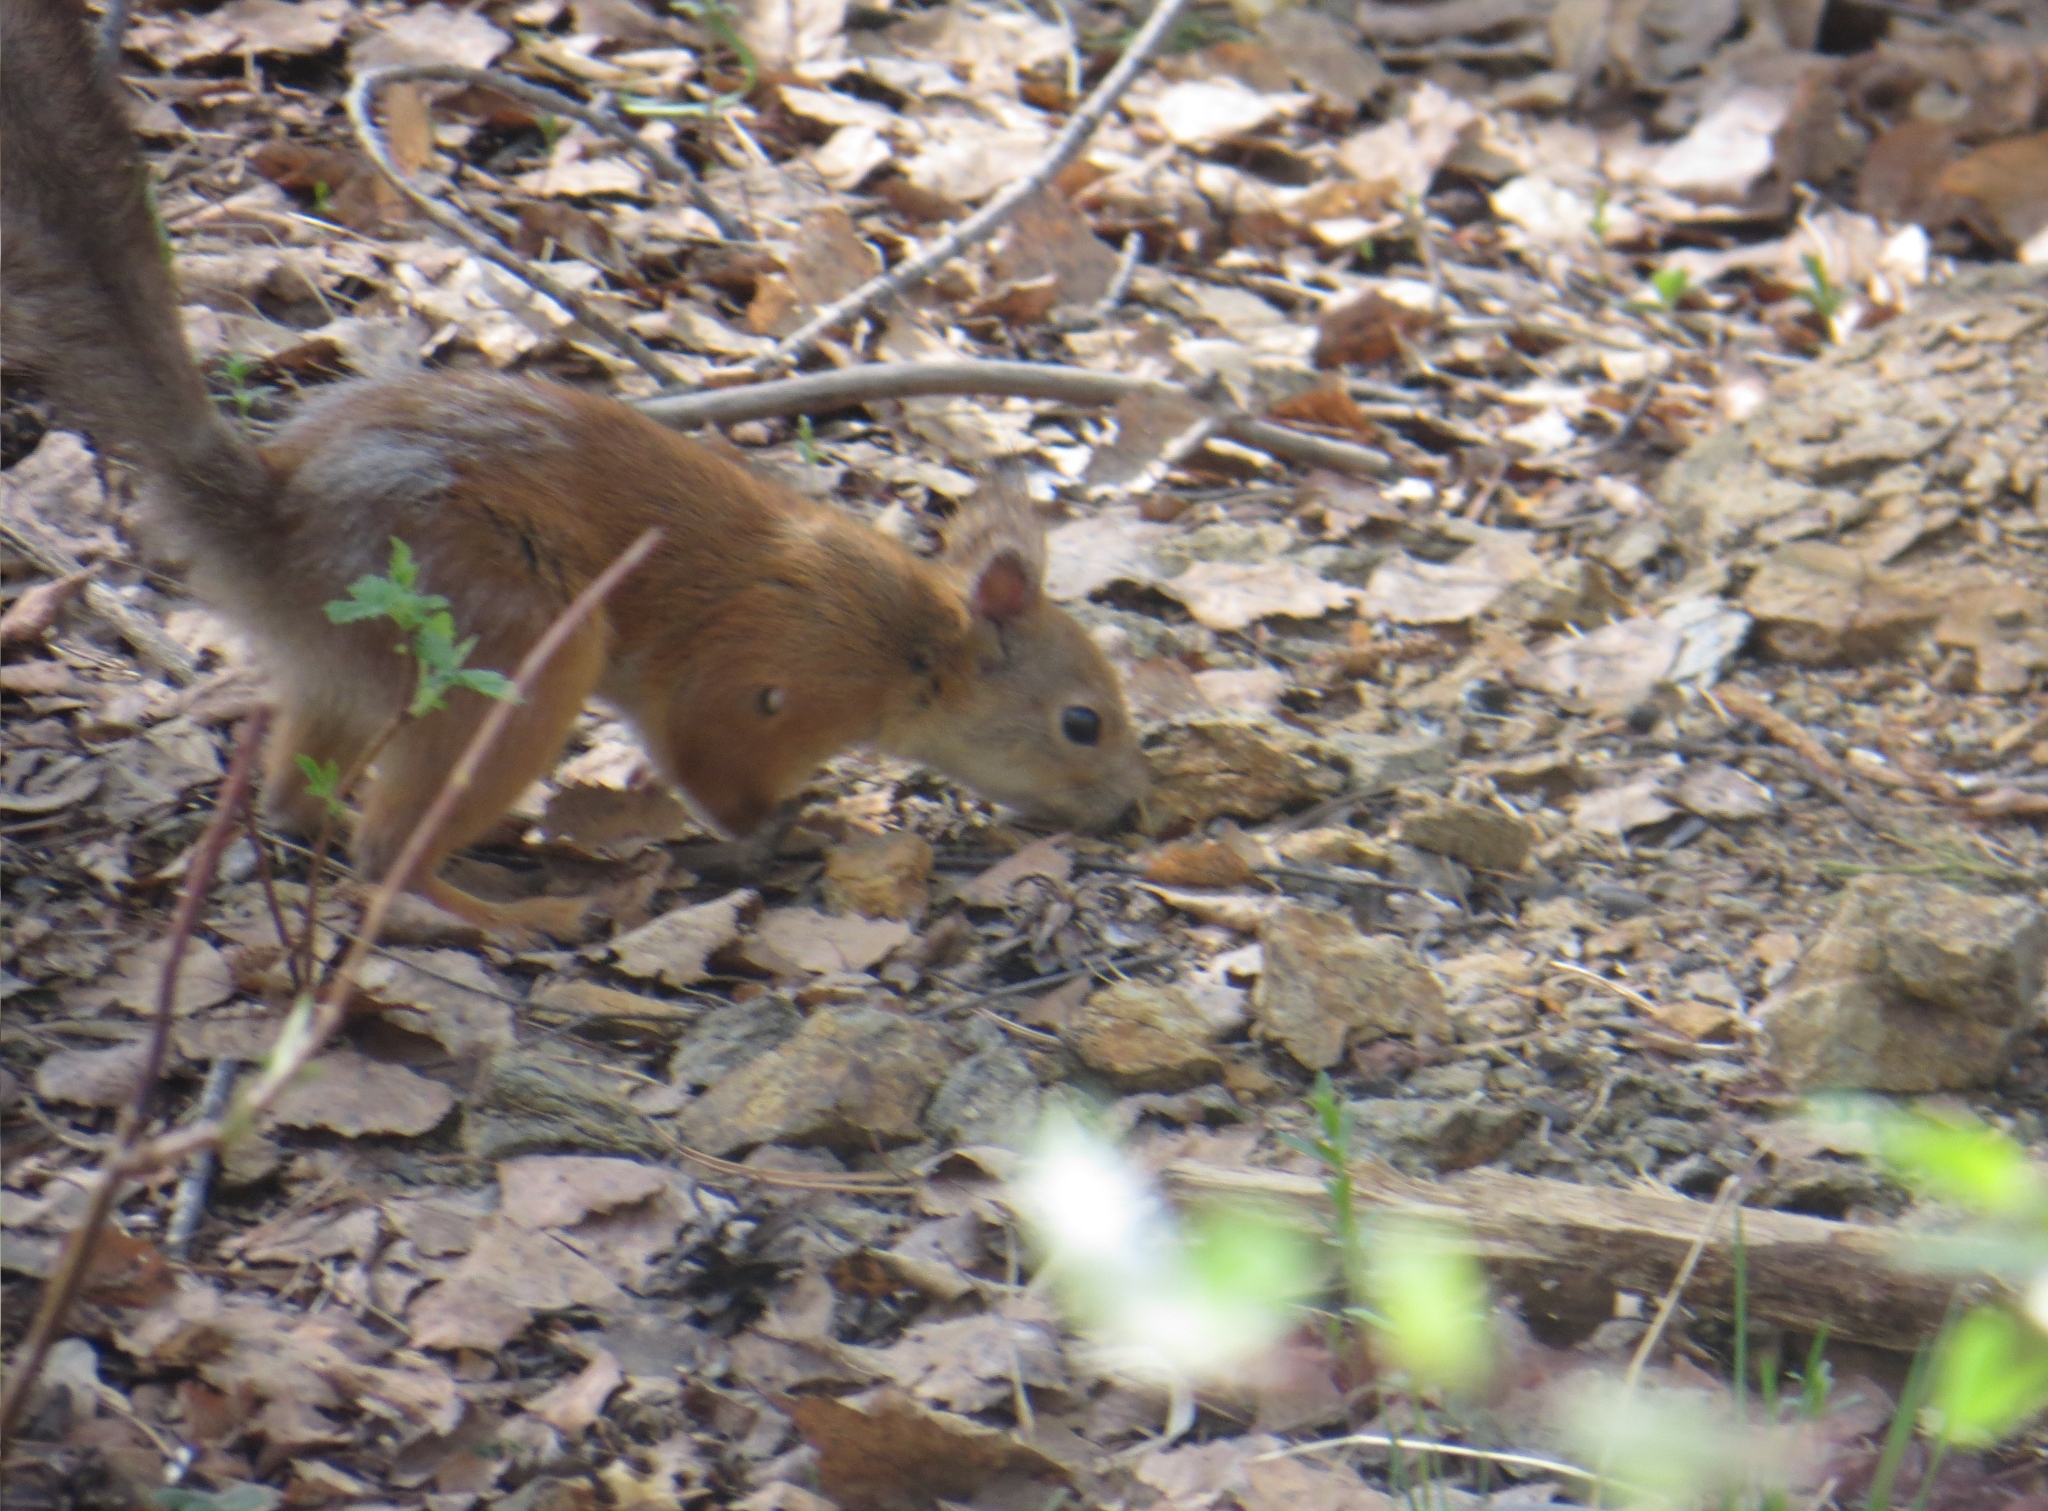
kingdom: Animalia
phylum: Chordata
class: Mammalia
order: Rodentia
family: Sciuridae
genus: Sciurus
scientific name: Sciurus vulgaris
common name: Eurasian red squirrel
